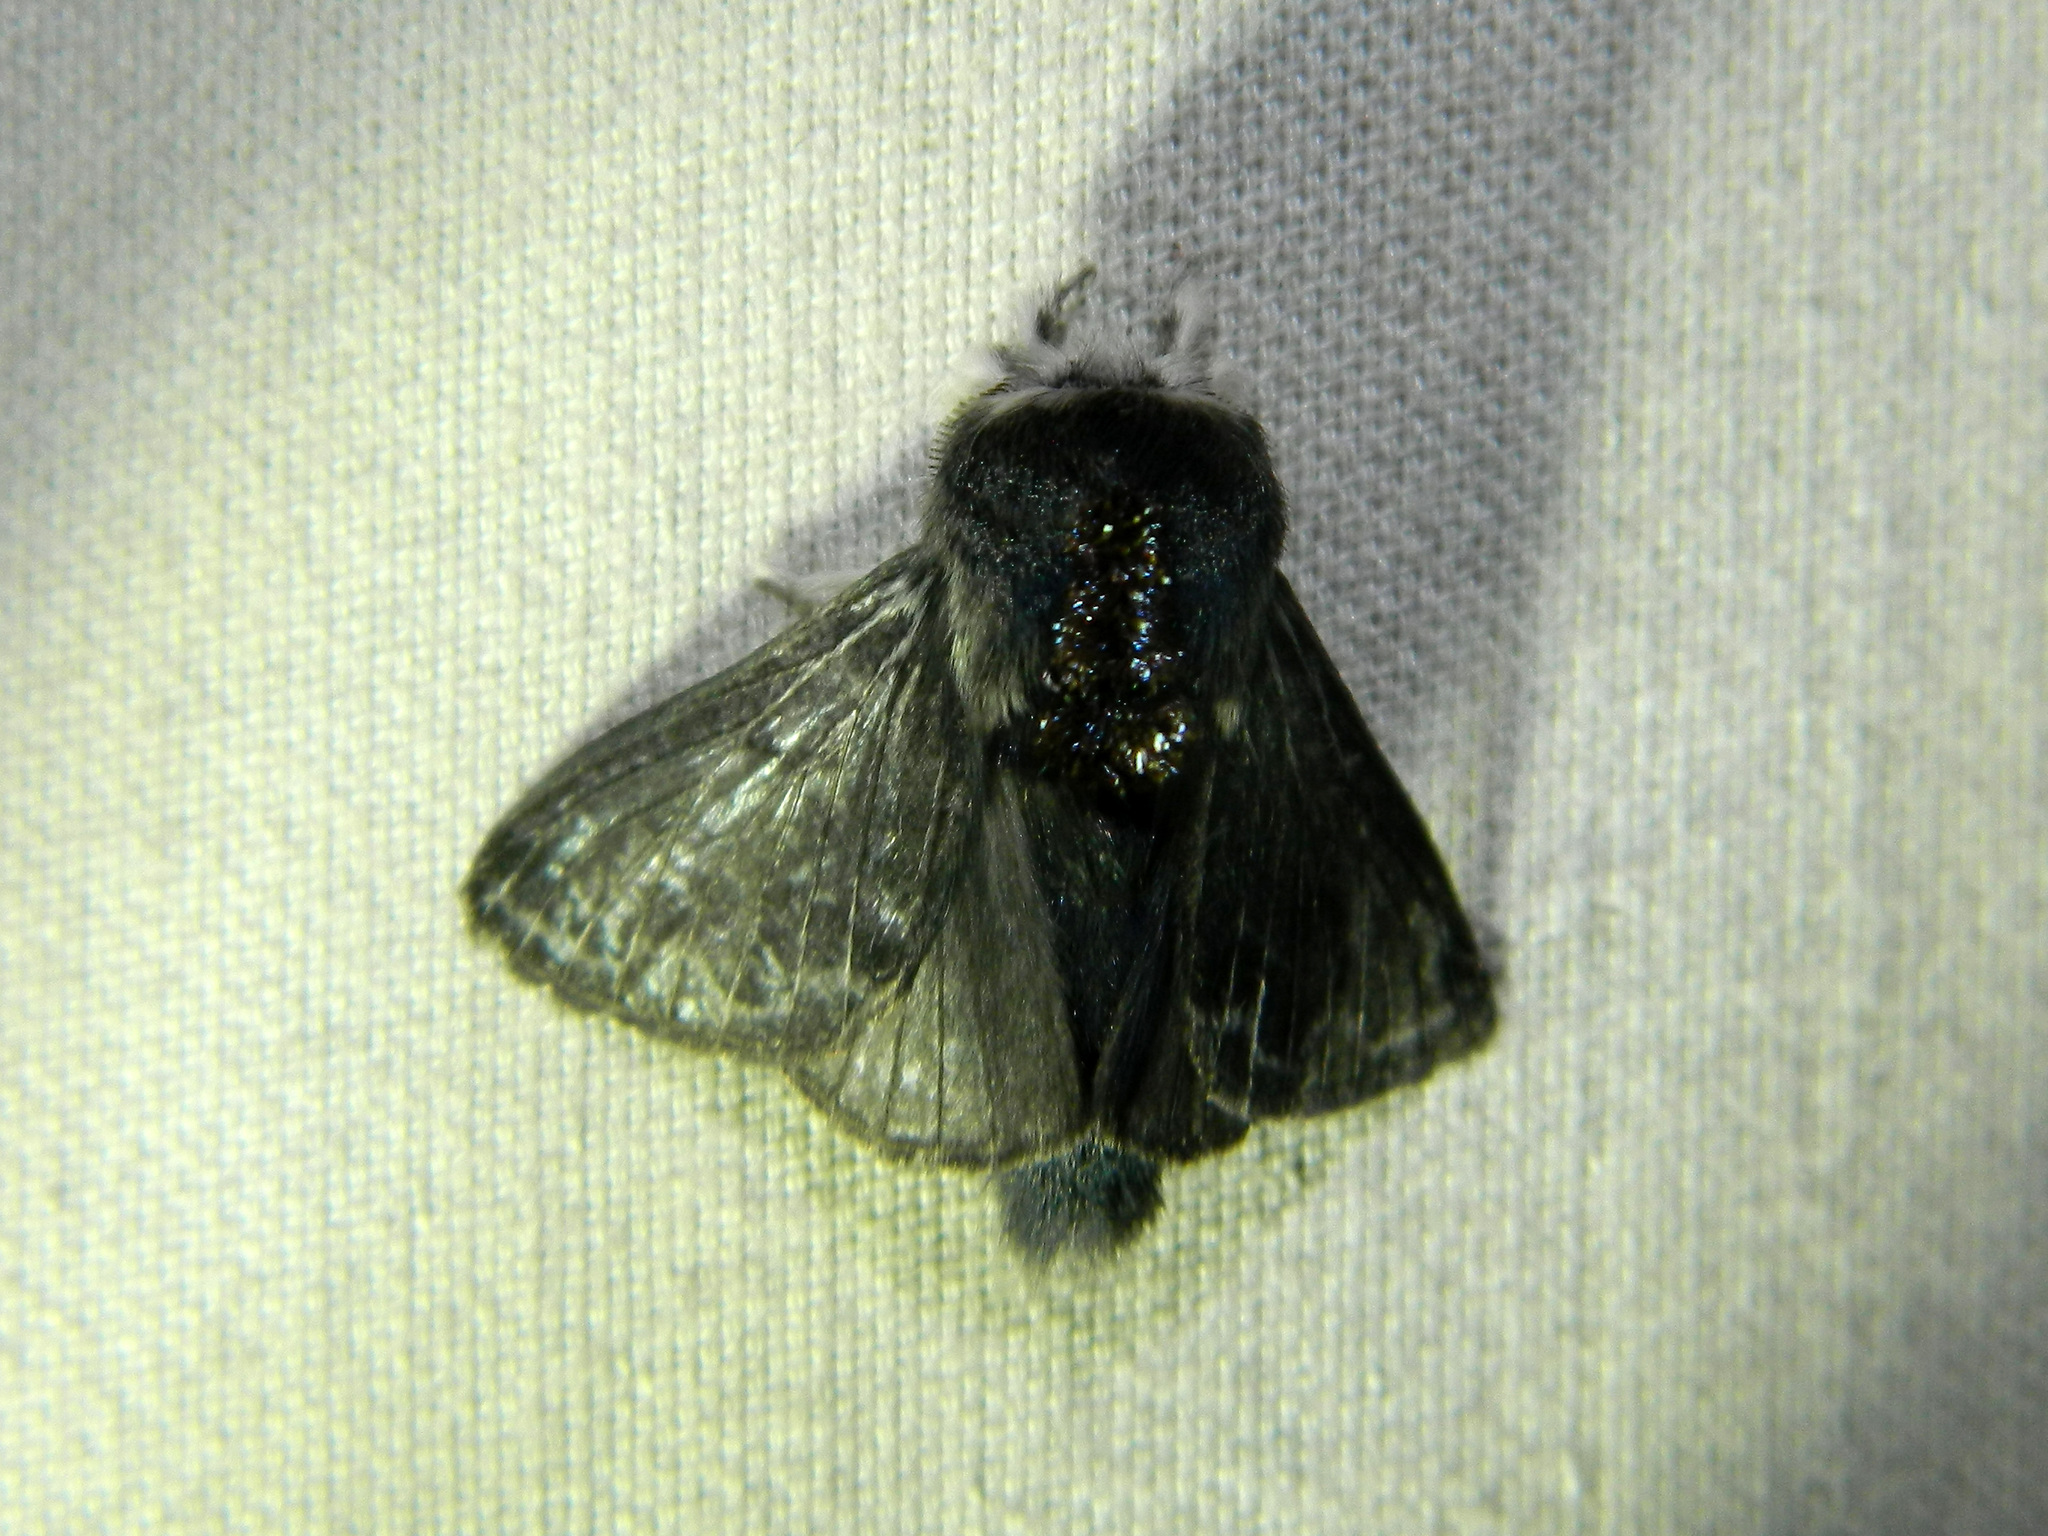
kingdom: Animalia
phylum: Arthropoda
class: Insecta
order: Lepidoptera
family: Lasiocampidae
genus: Tolype
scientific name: Tolype laricis
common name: Larch tolype moth
